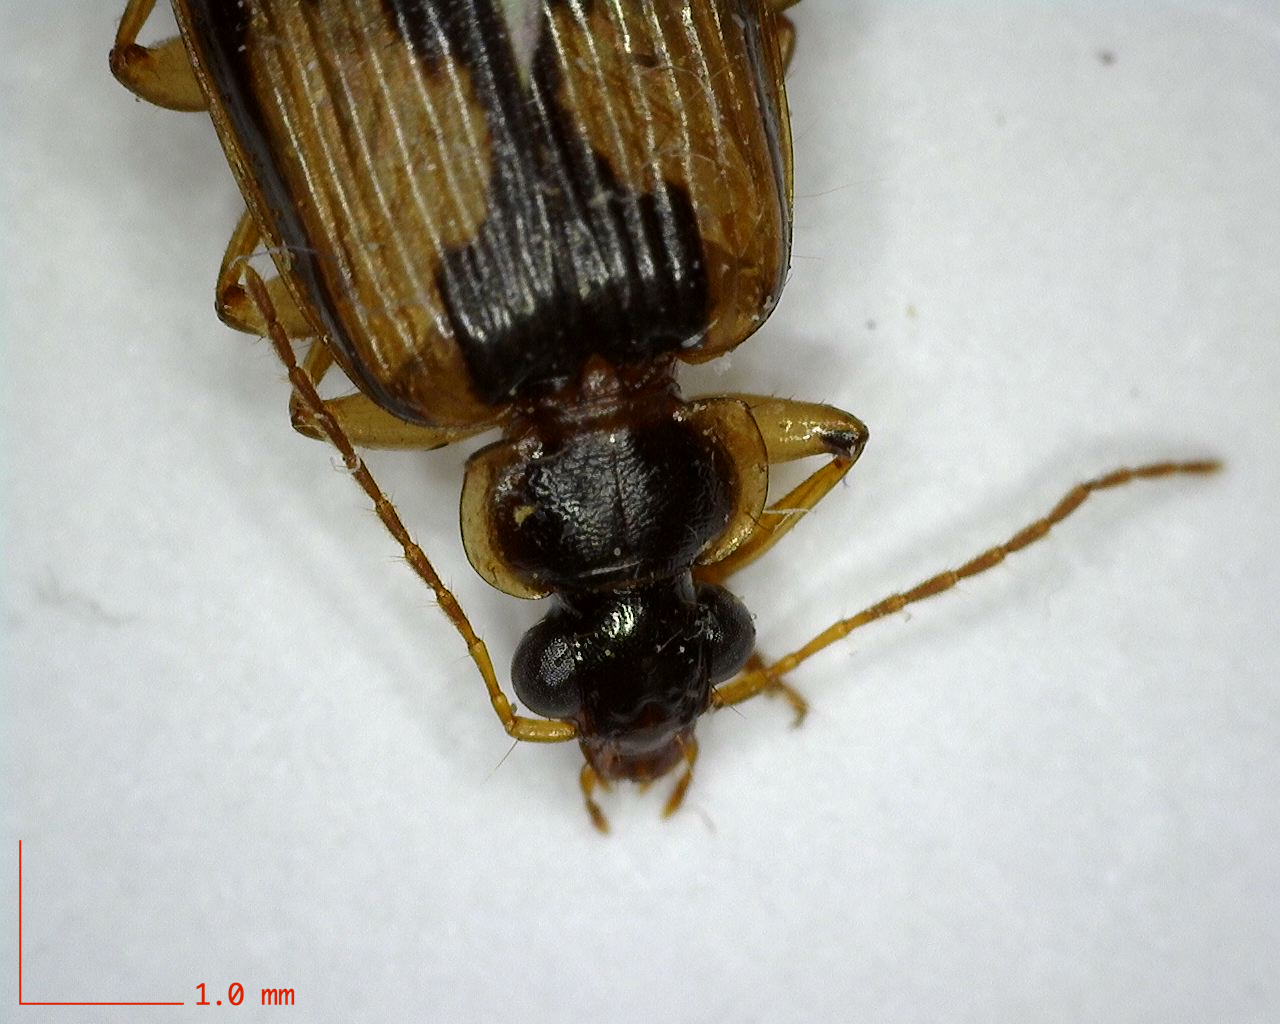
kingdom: Animalia
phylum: Arthropoda
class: Insecta
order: Coleoptera
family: Carabidae
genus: Lebia
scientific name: Lebia fuscata
